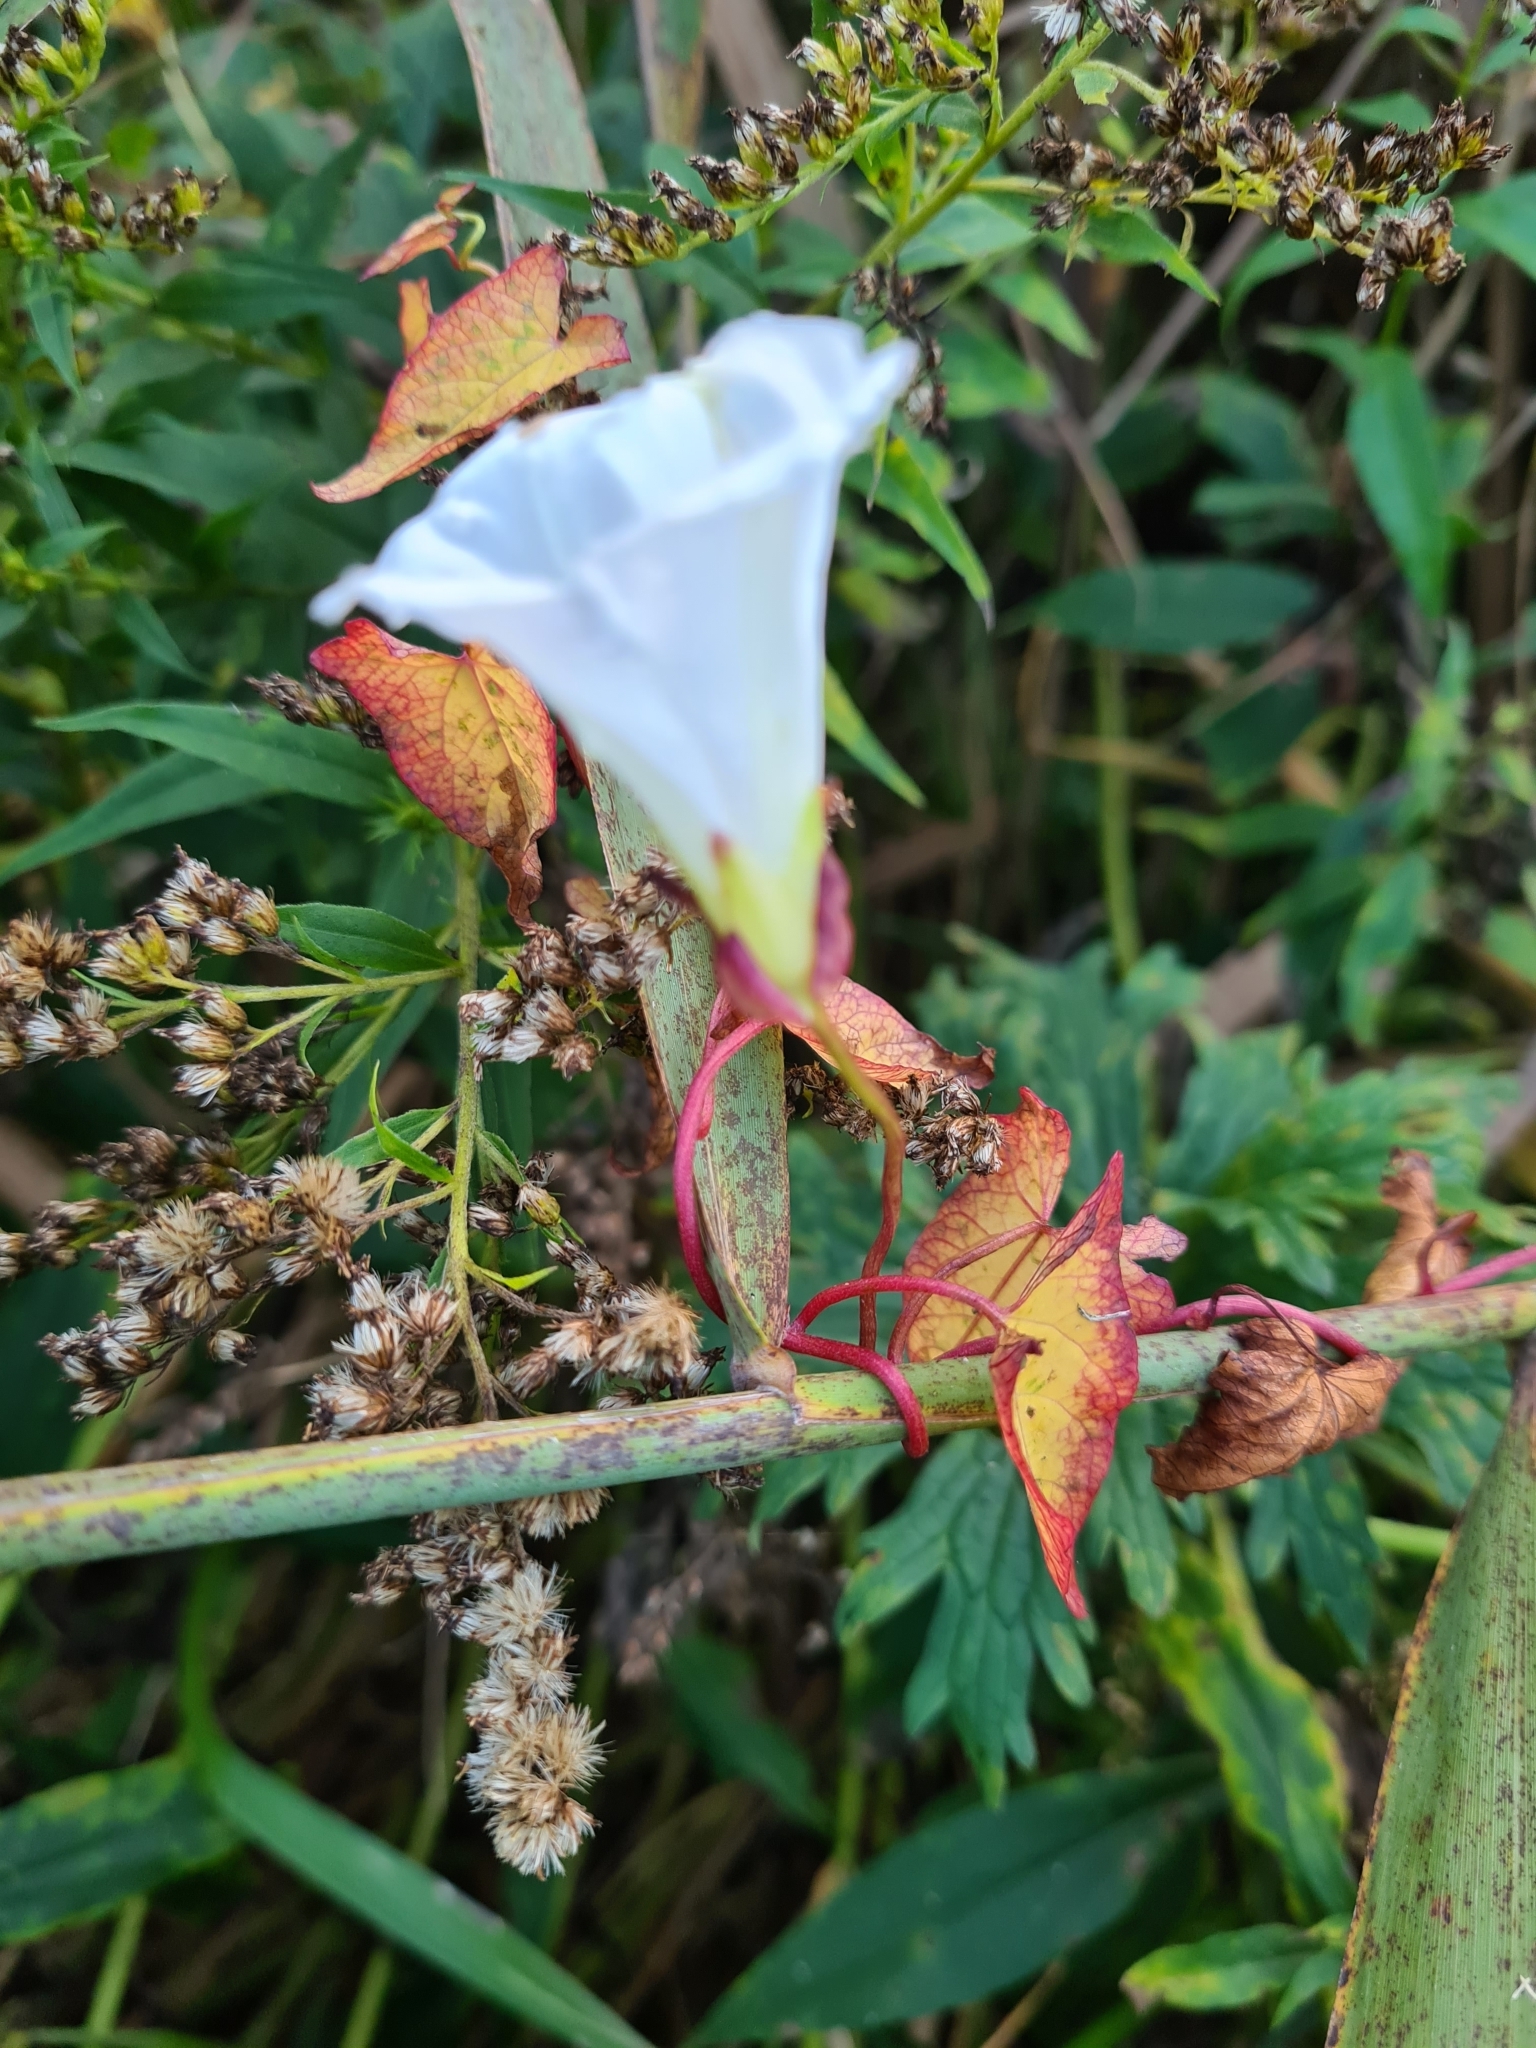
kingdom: Plantae
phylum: Tracheophyta
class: Magnoliopsida
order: Solanales
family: Convolvulaceae
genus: Calystegia
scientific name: Calystegia sepium
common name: Hedge bindweed
